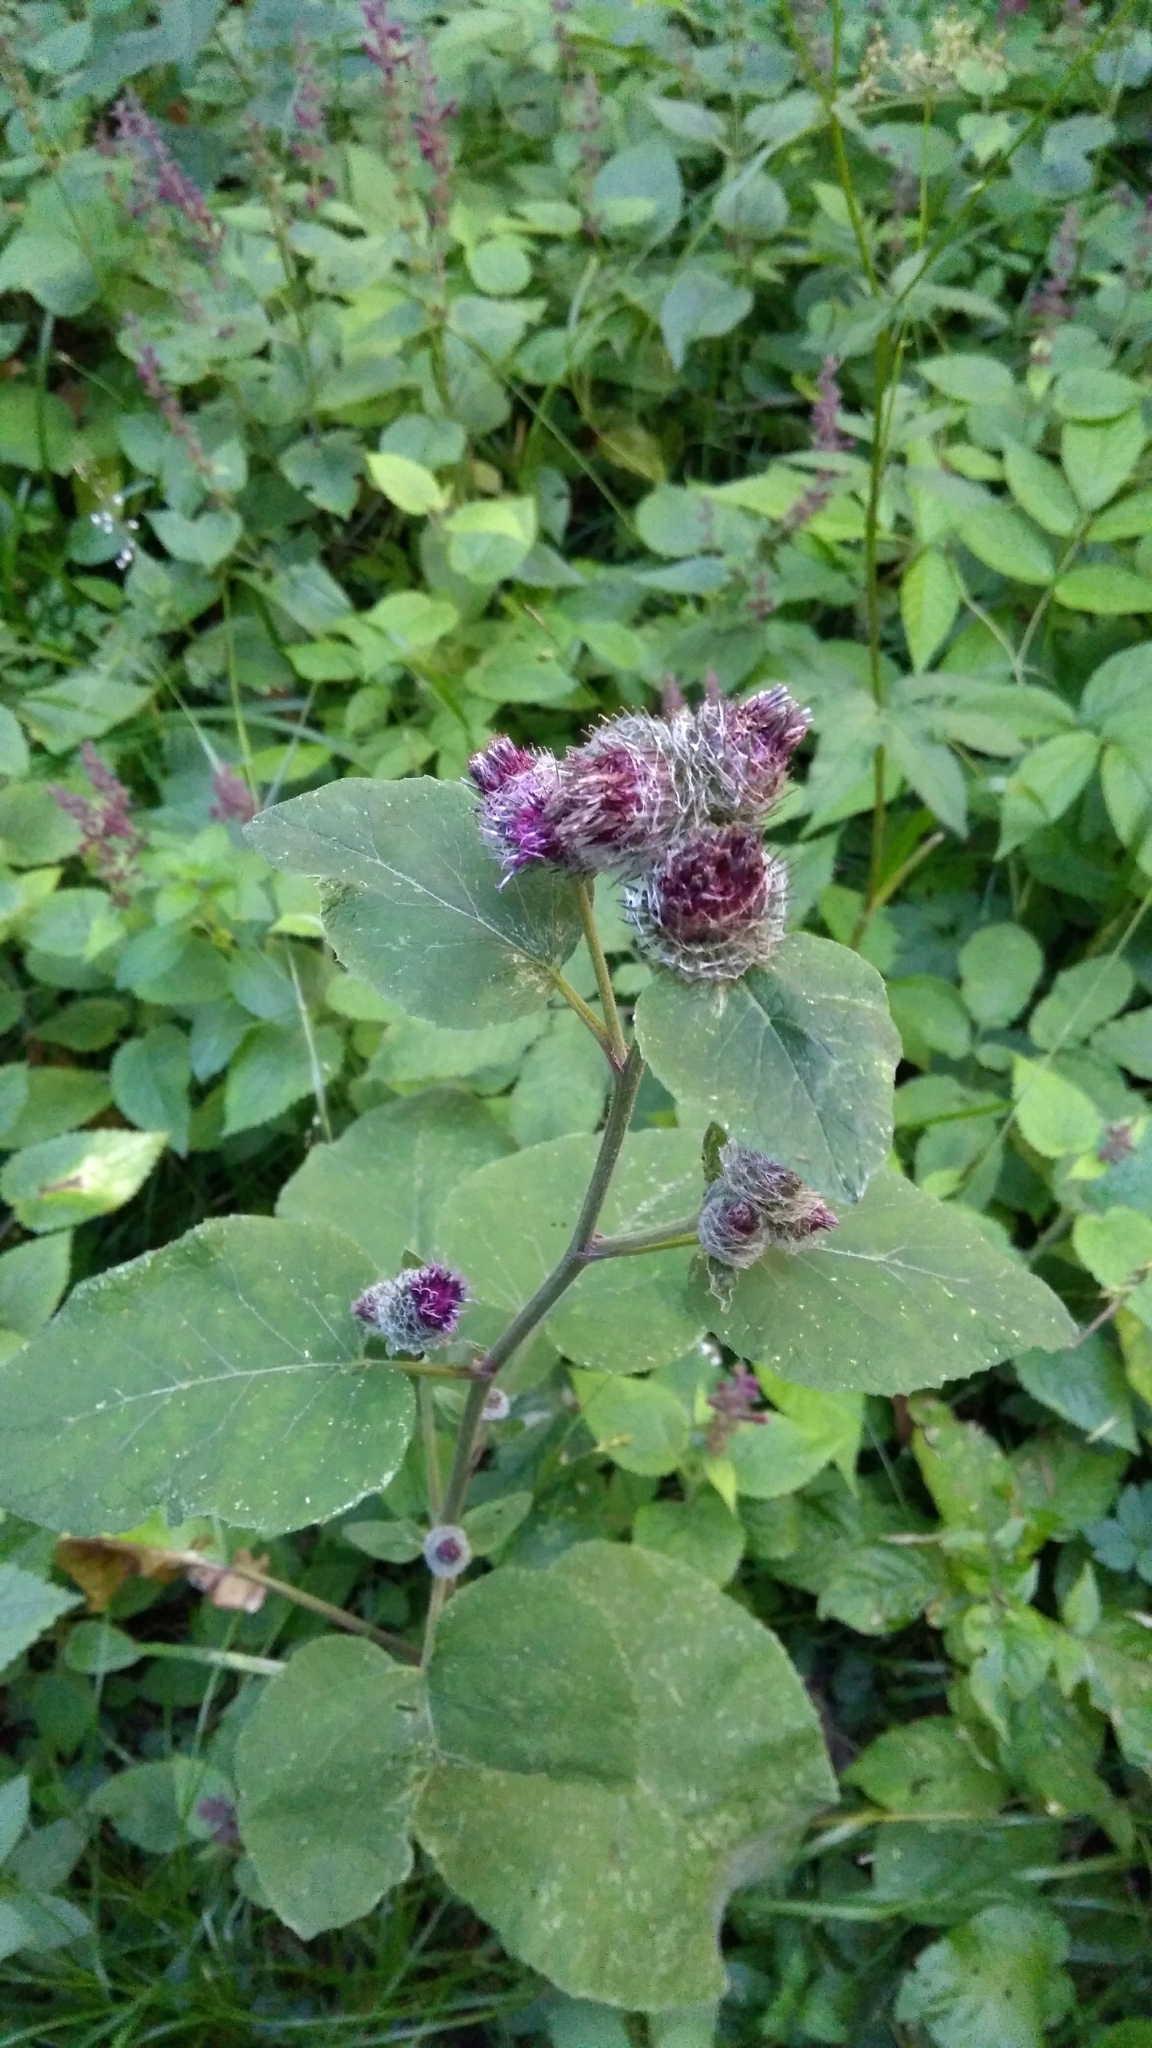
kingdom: Plantae
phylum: Tracheophyta
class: Magnoliopsida
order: Asterales
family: Asteraceae
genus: Arctium
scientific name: Arctium tomentosum
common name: Woolly burdock
